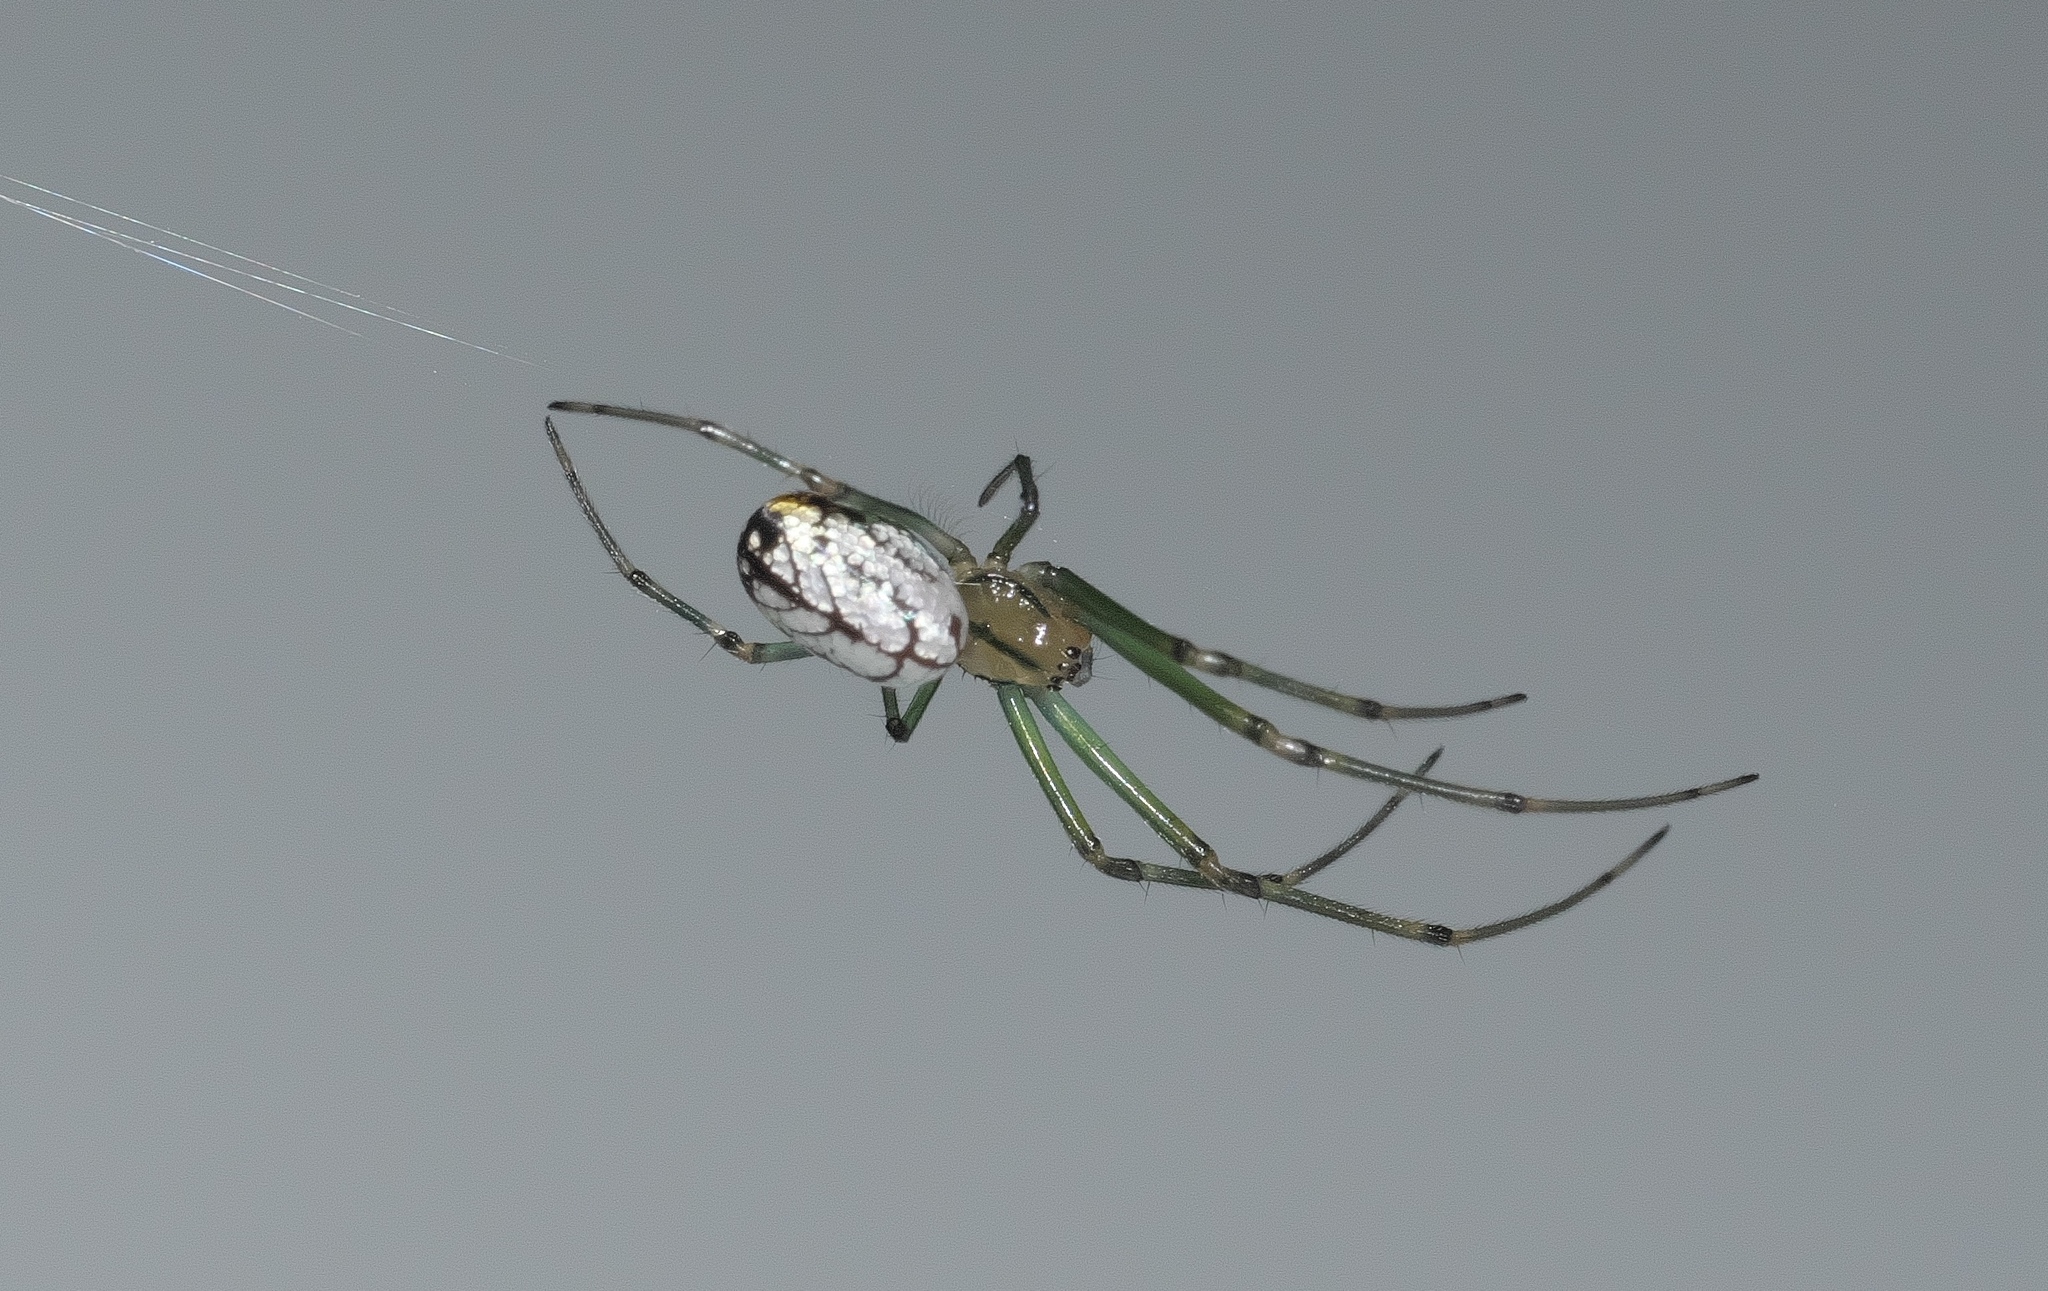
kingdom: Animalia
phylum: Arthropoda
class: Arachnida
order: Araneae
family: Tetragnathidae
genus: Leucauge
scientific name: Leucauge venusta
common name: Longjawed orb weavers
